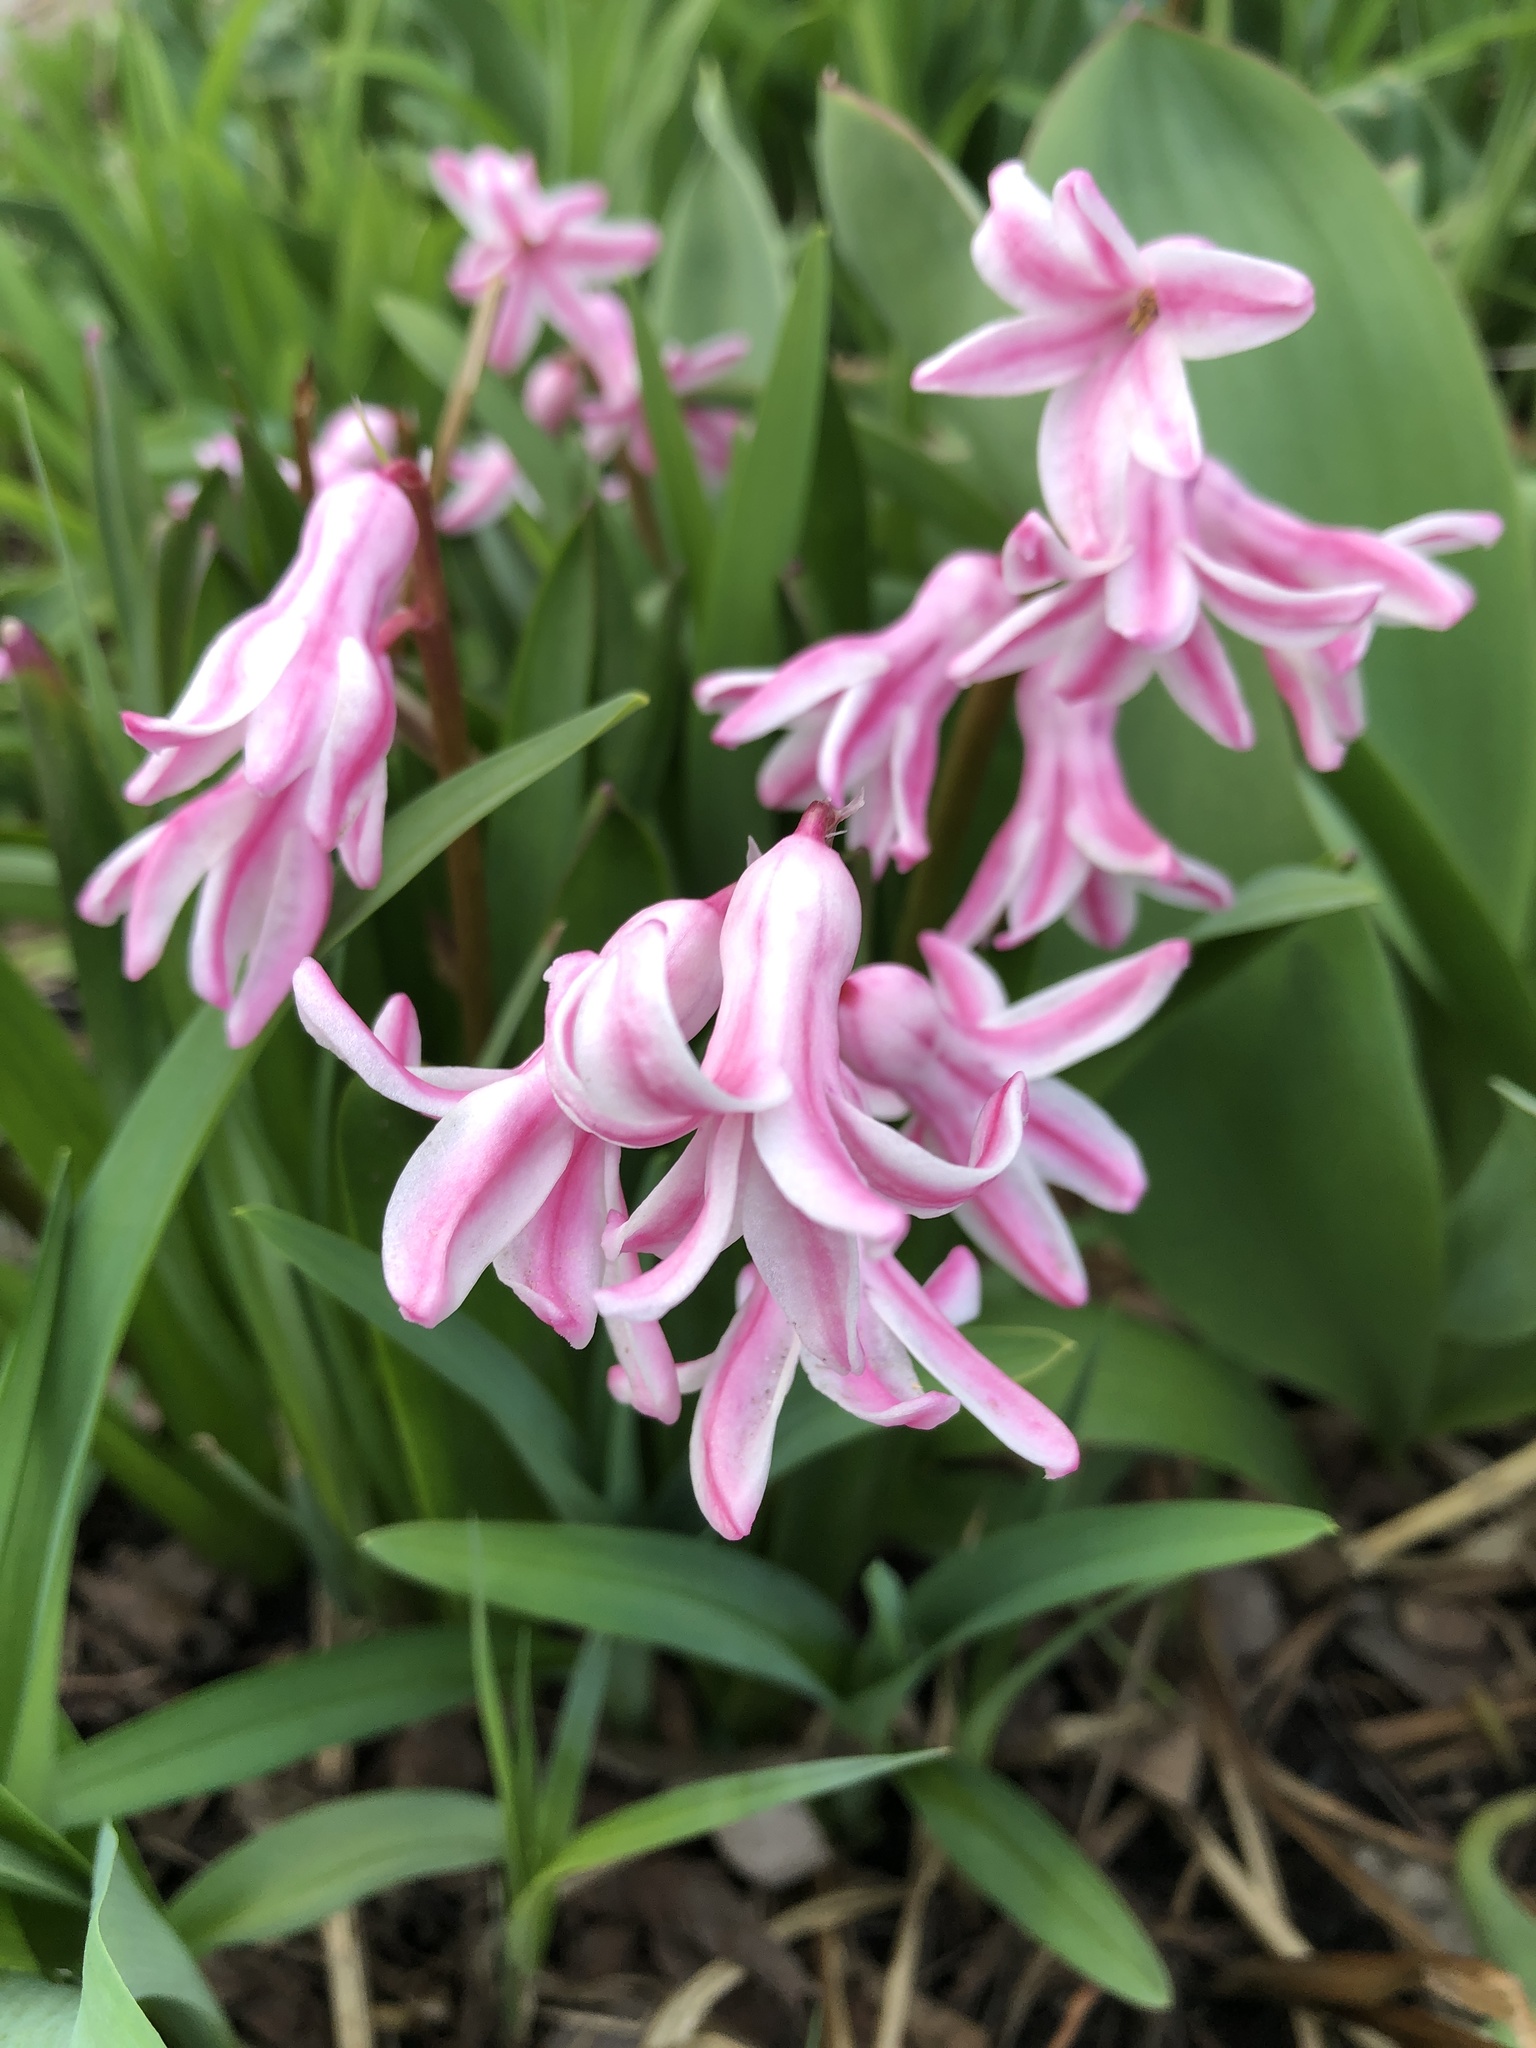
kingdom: Plantae
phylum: Tracheophyta
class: Liliopsida
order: Asparagales
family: Asparagaceae
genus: Hyacinthus
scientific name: Hyacinthus orientalis
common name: Hyacinth
